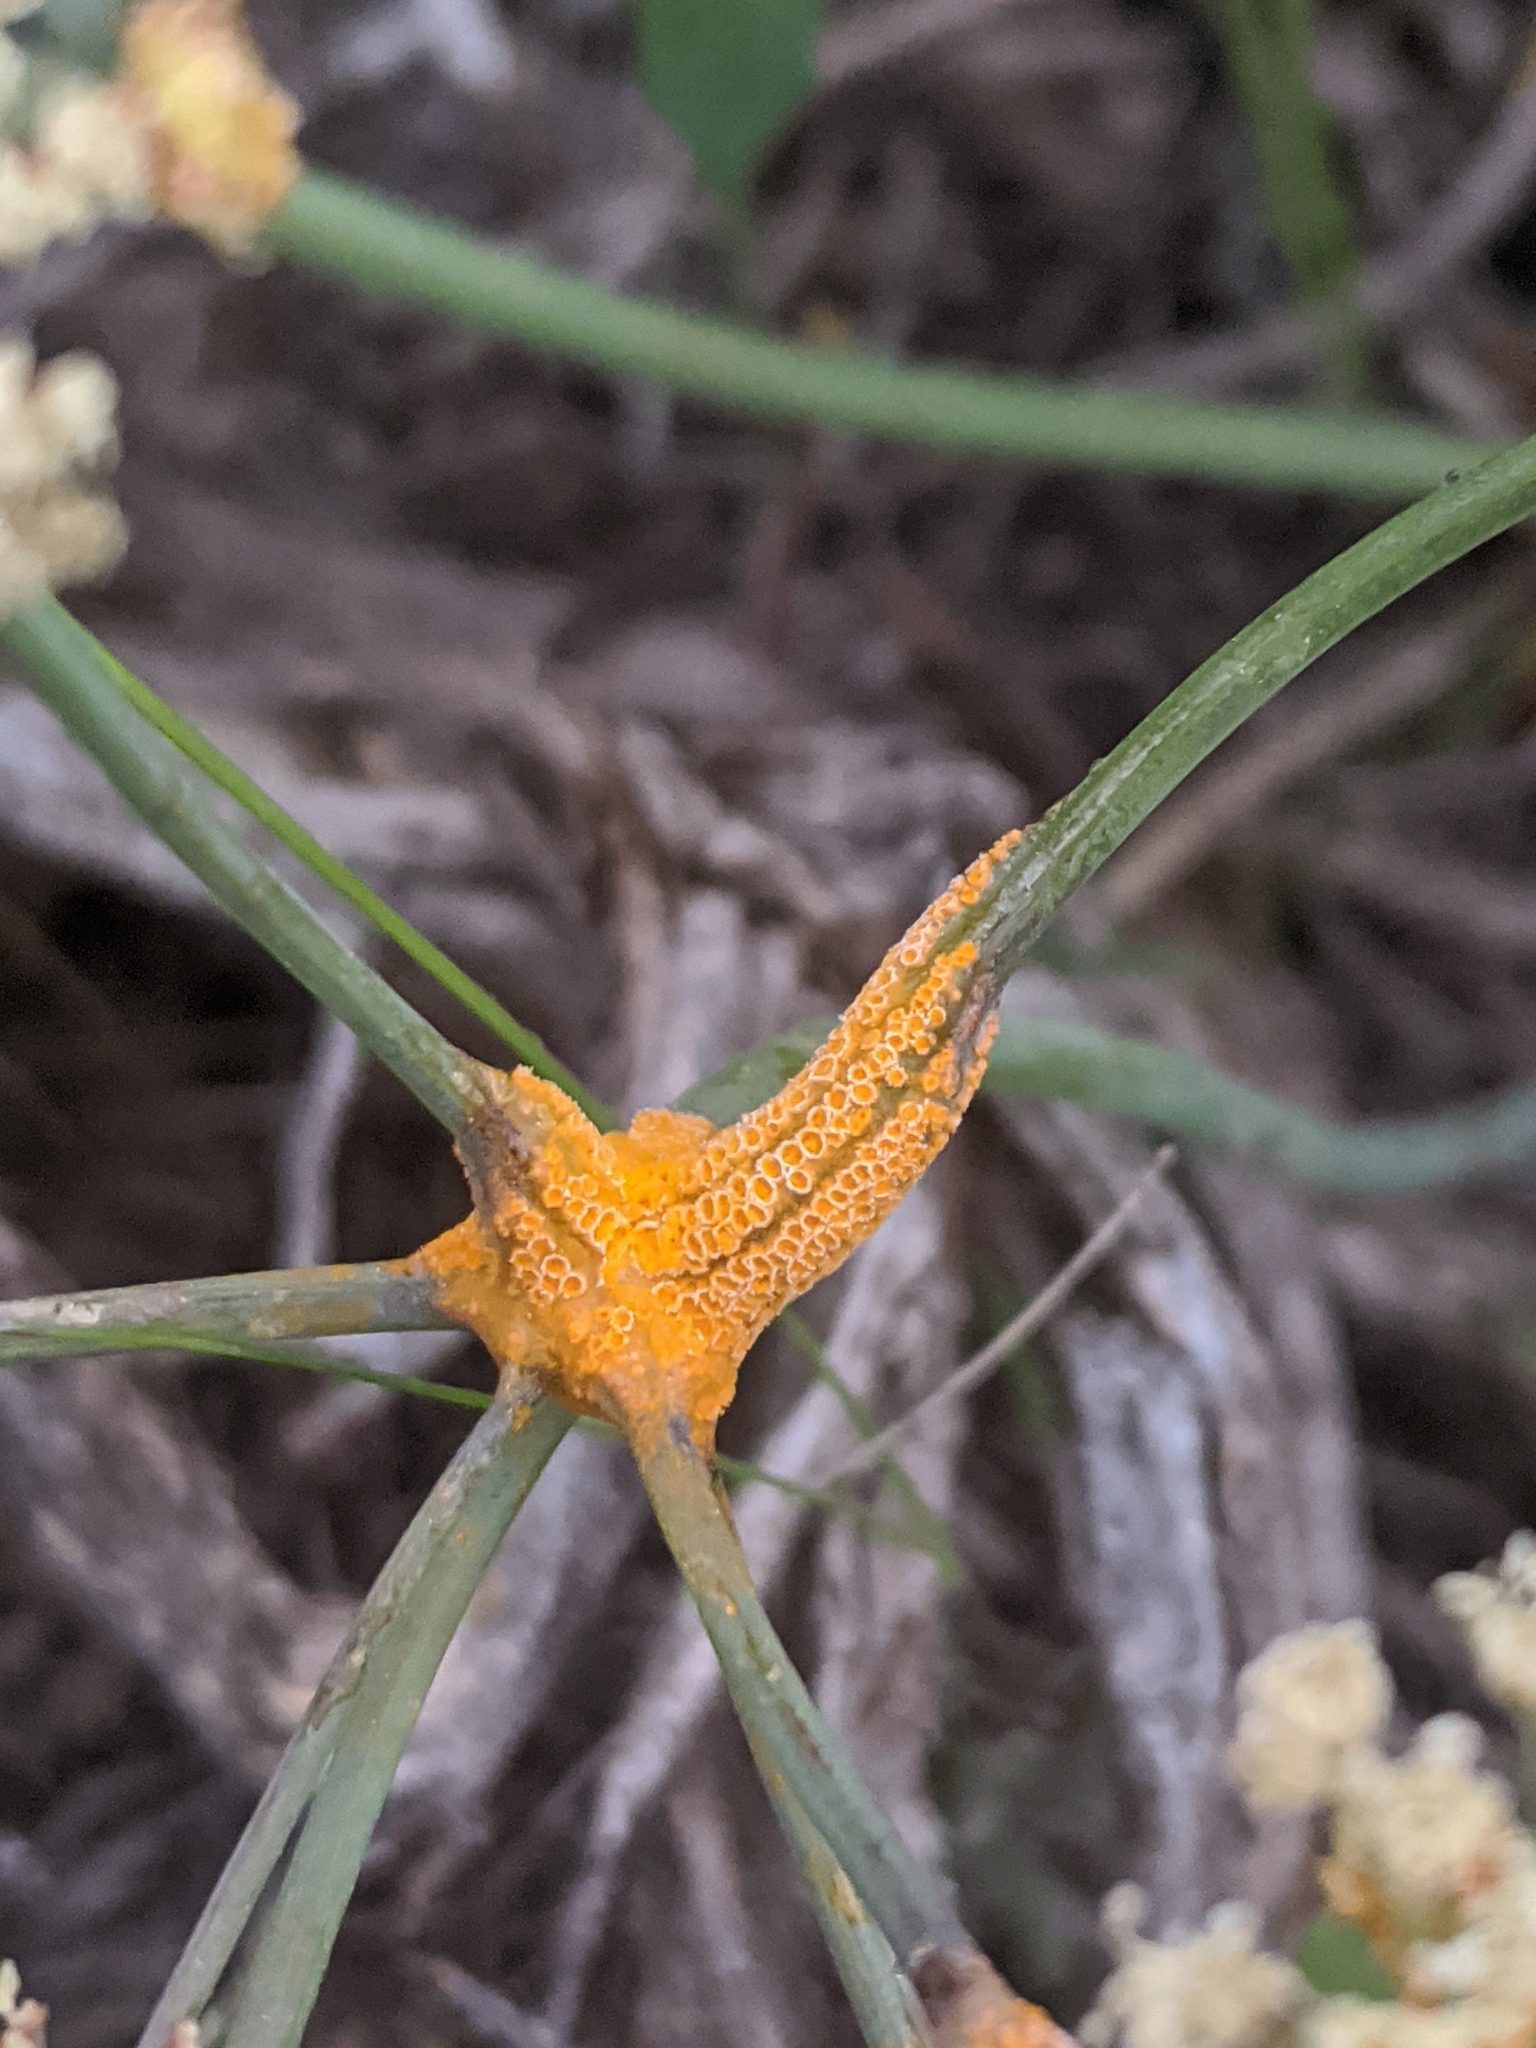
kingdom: Fungi
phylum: Basidiomycota
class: Pucciniomycetes
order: Pucciniales
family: Pucciniaceae
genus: Puccinia
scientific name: Puccinia jonesii
